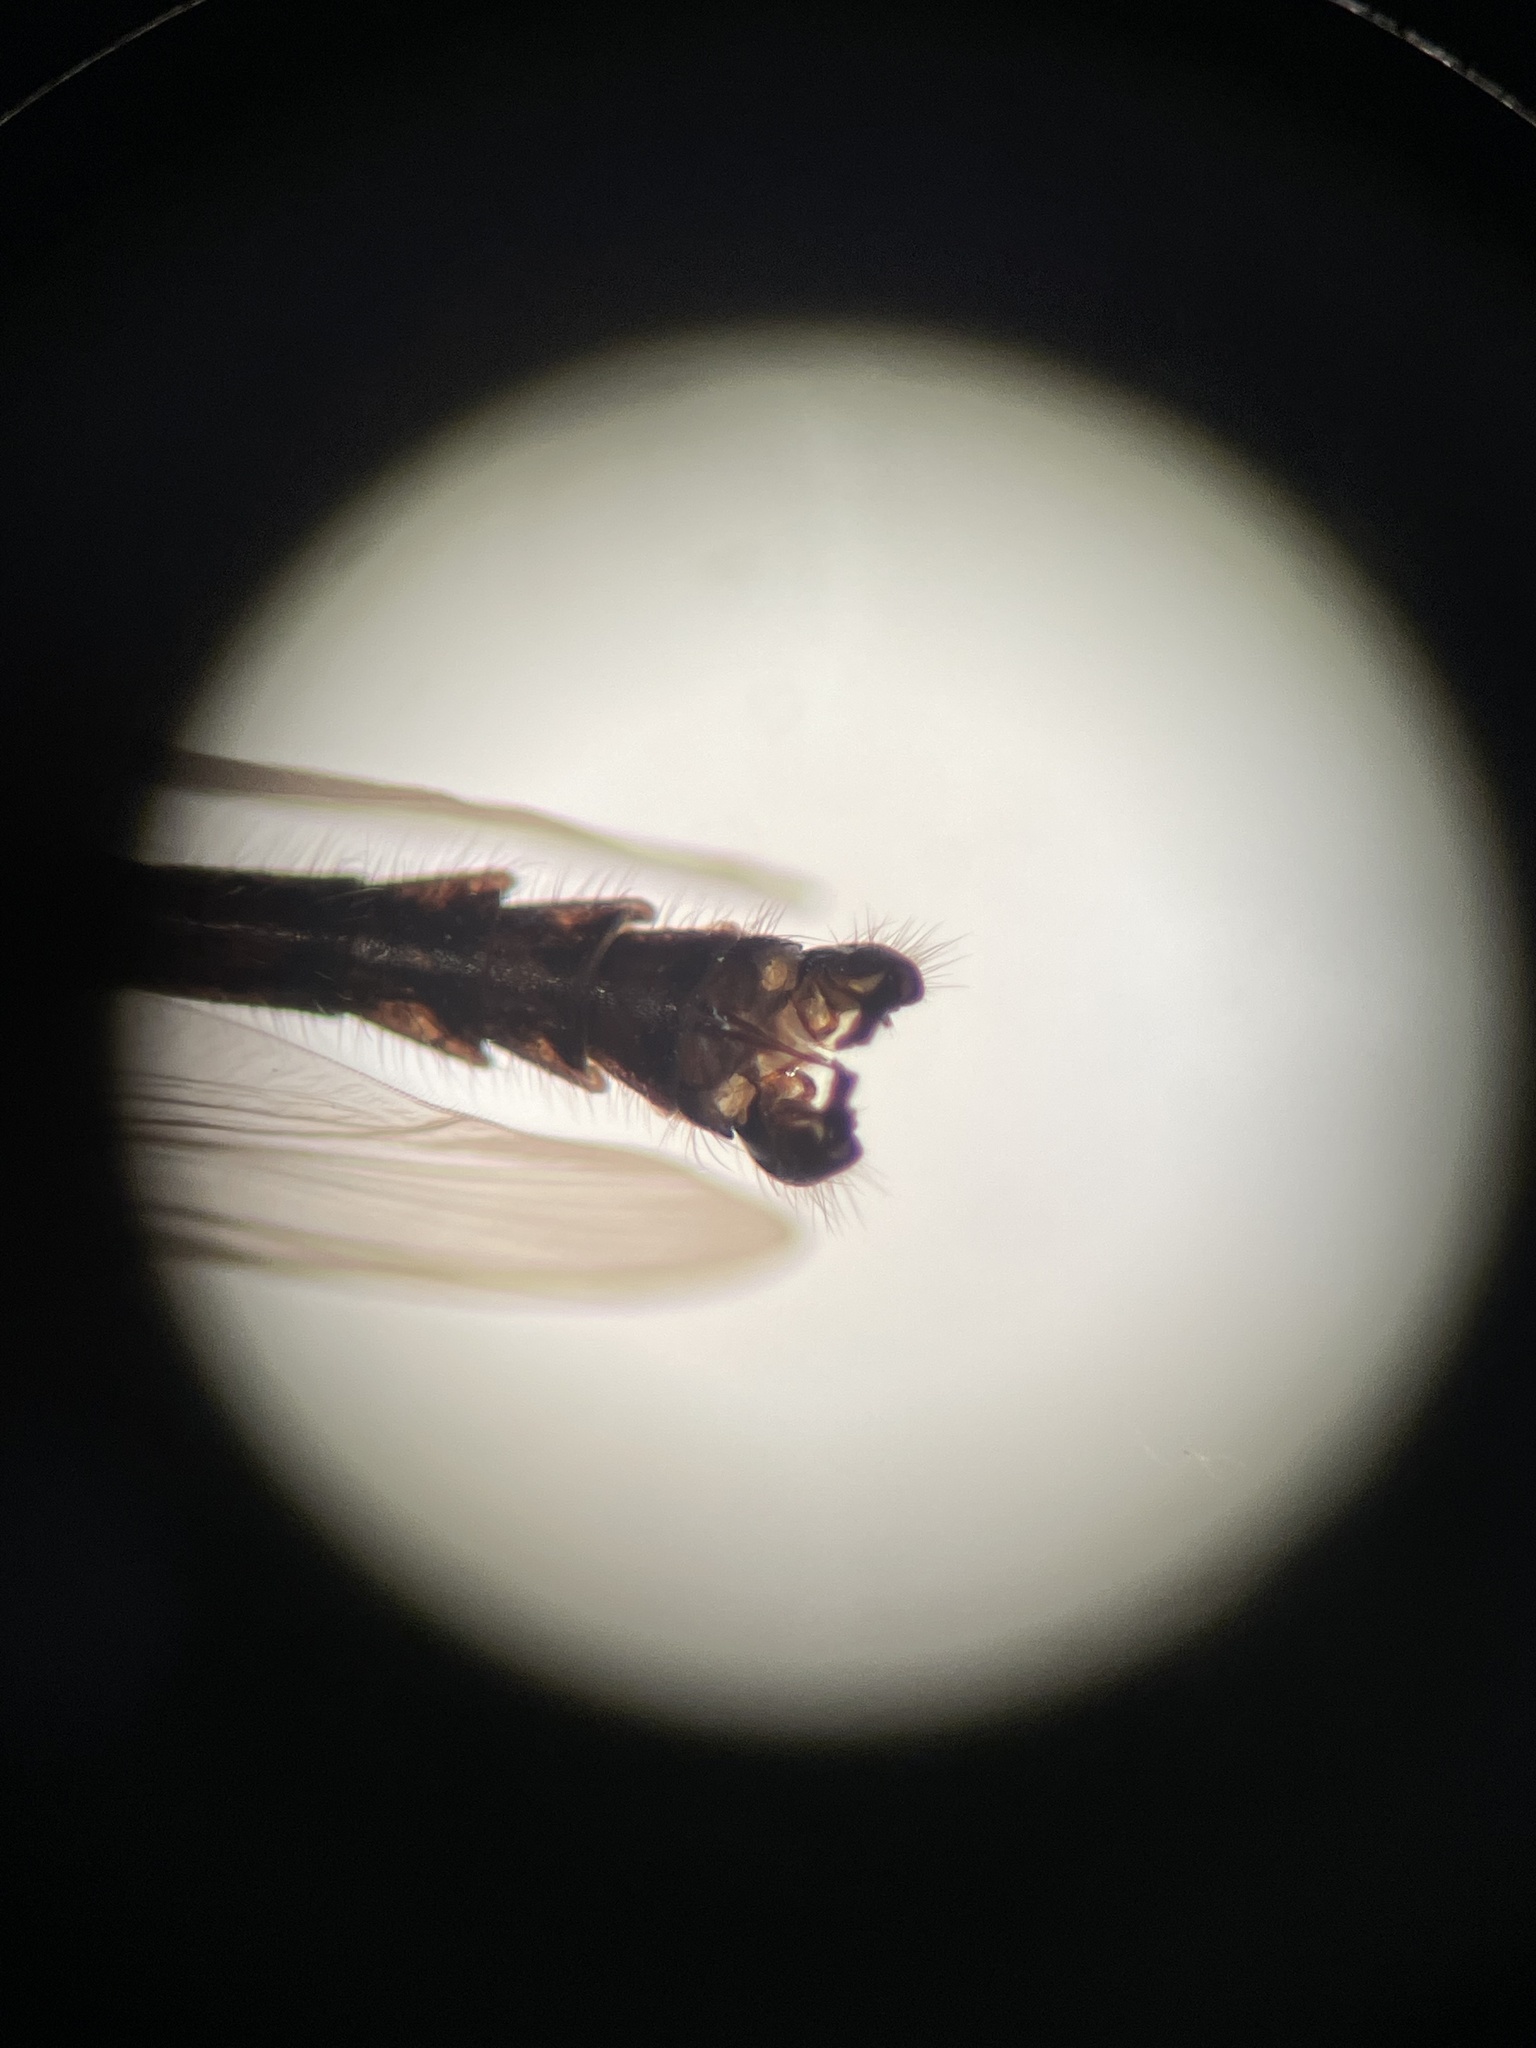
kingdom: Animalia
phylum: Arthropoda
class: Insecta
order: Diptera
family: Chironomidae
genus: Diamesa
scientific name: Diamesa mendotae
